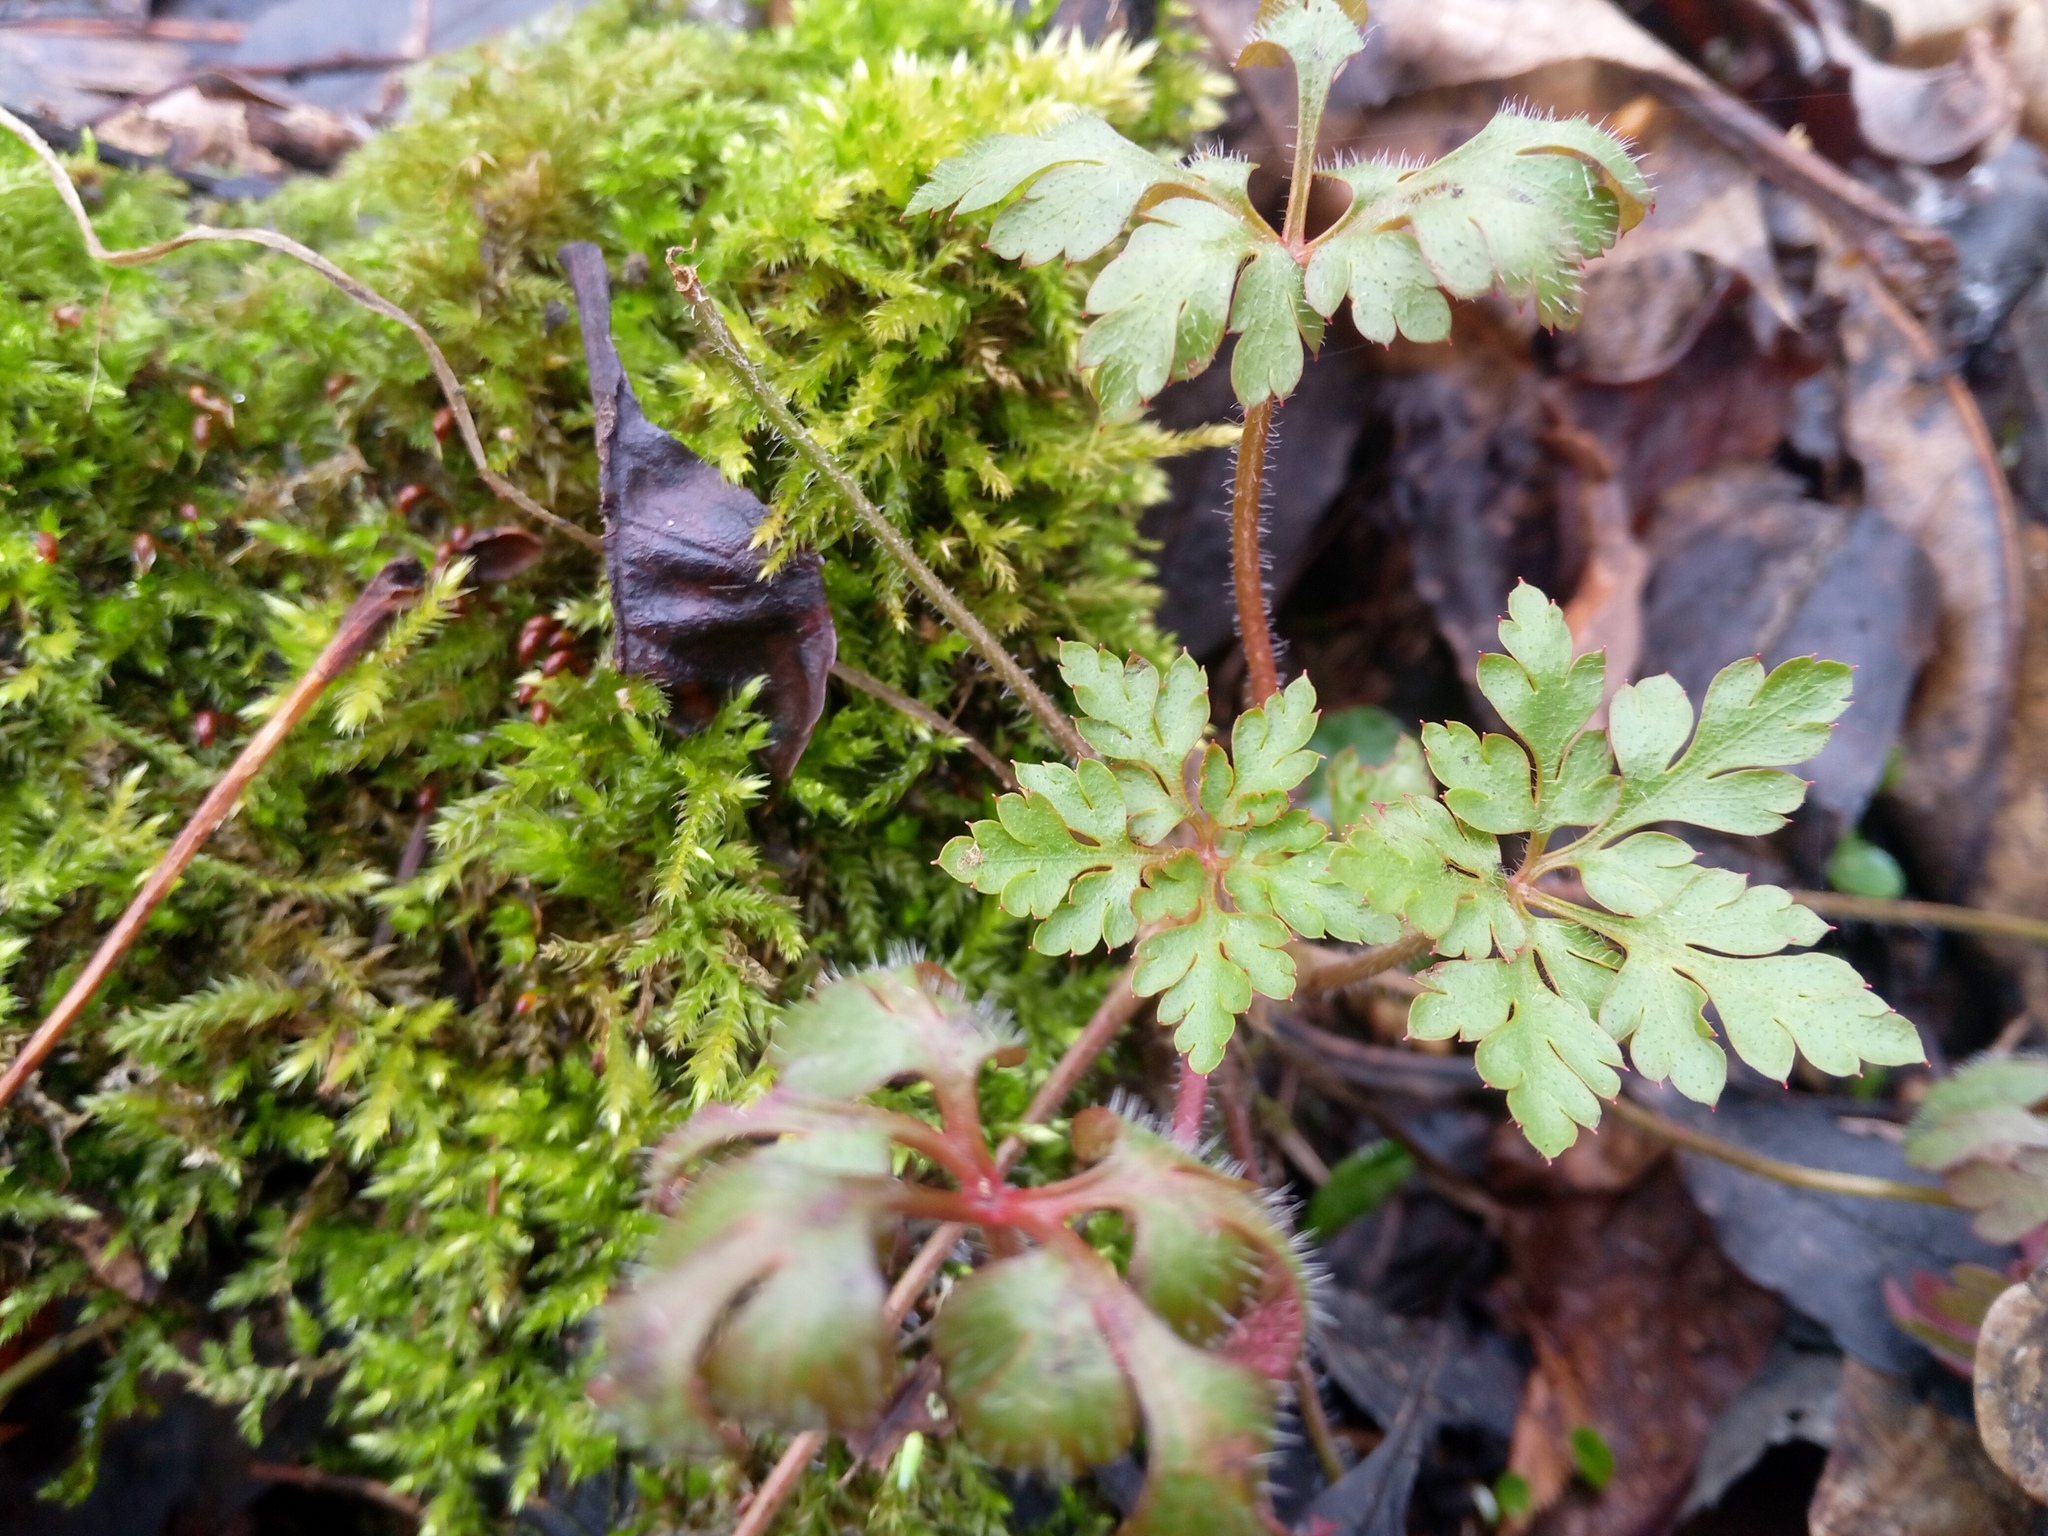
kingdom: Plantae
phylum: Tracheophyta
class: Magnoliopsida
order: Geraniales
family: Geraniaceae
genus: Geranium
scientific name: Geranium robertianum
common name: Herb-robert
